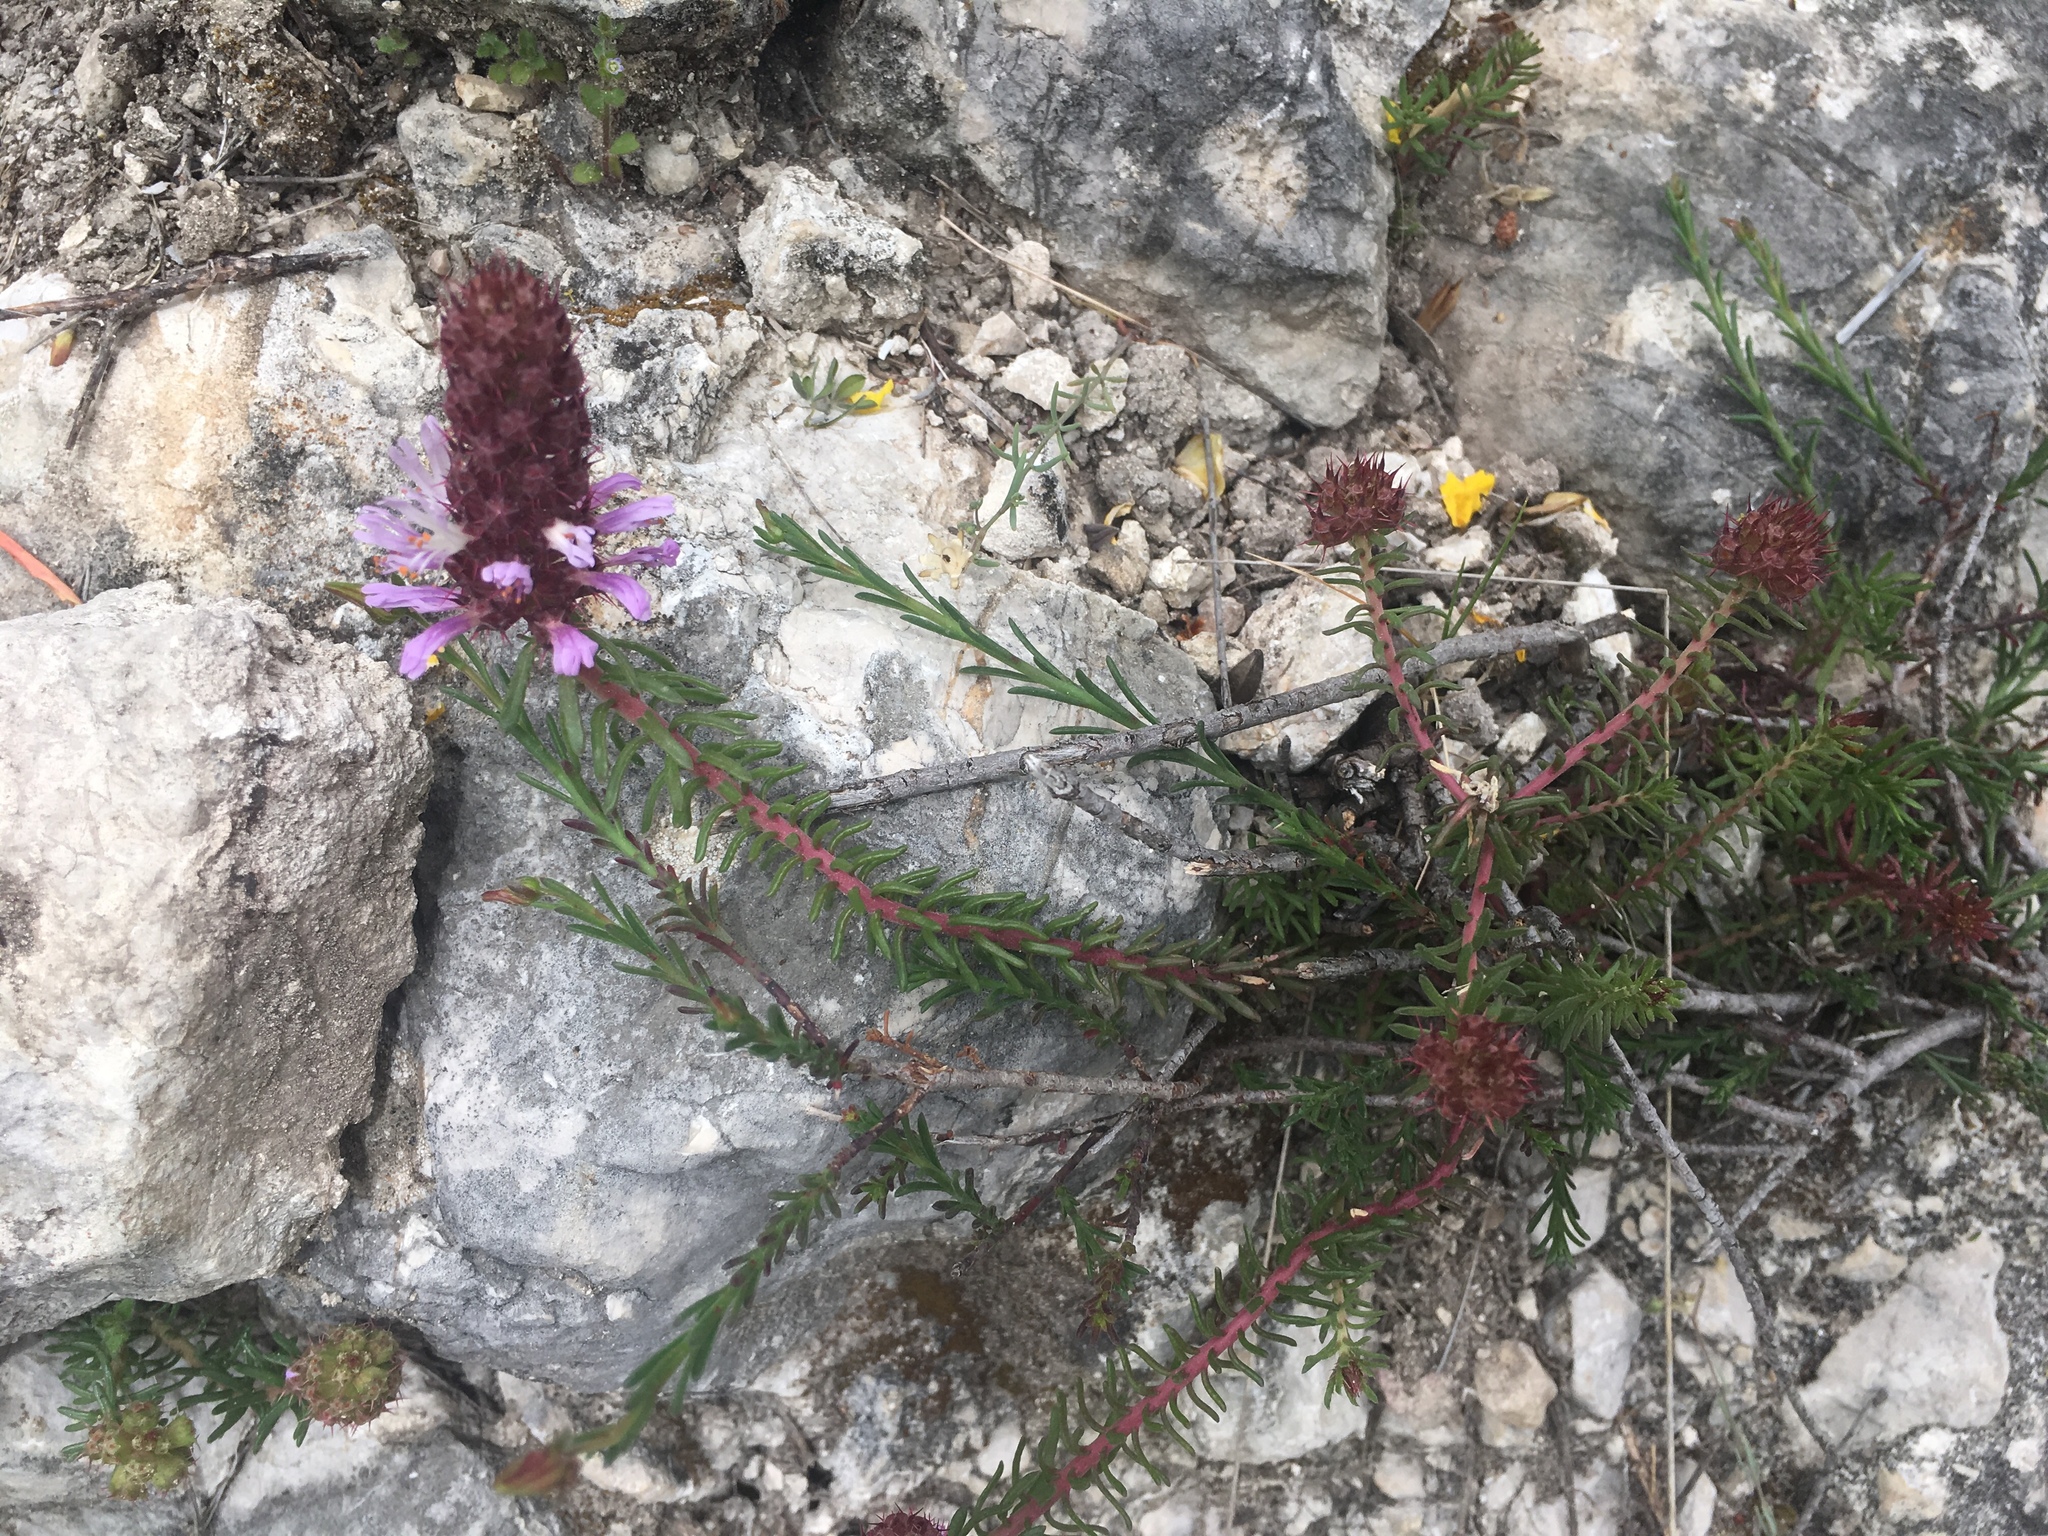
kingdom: Plantae
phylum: Tracheophyta
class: Magnoliopsida
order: Ericales
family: Primulaceae
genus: Coris
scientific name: Coris monspeliensis
